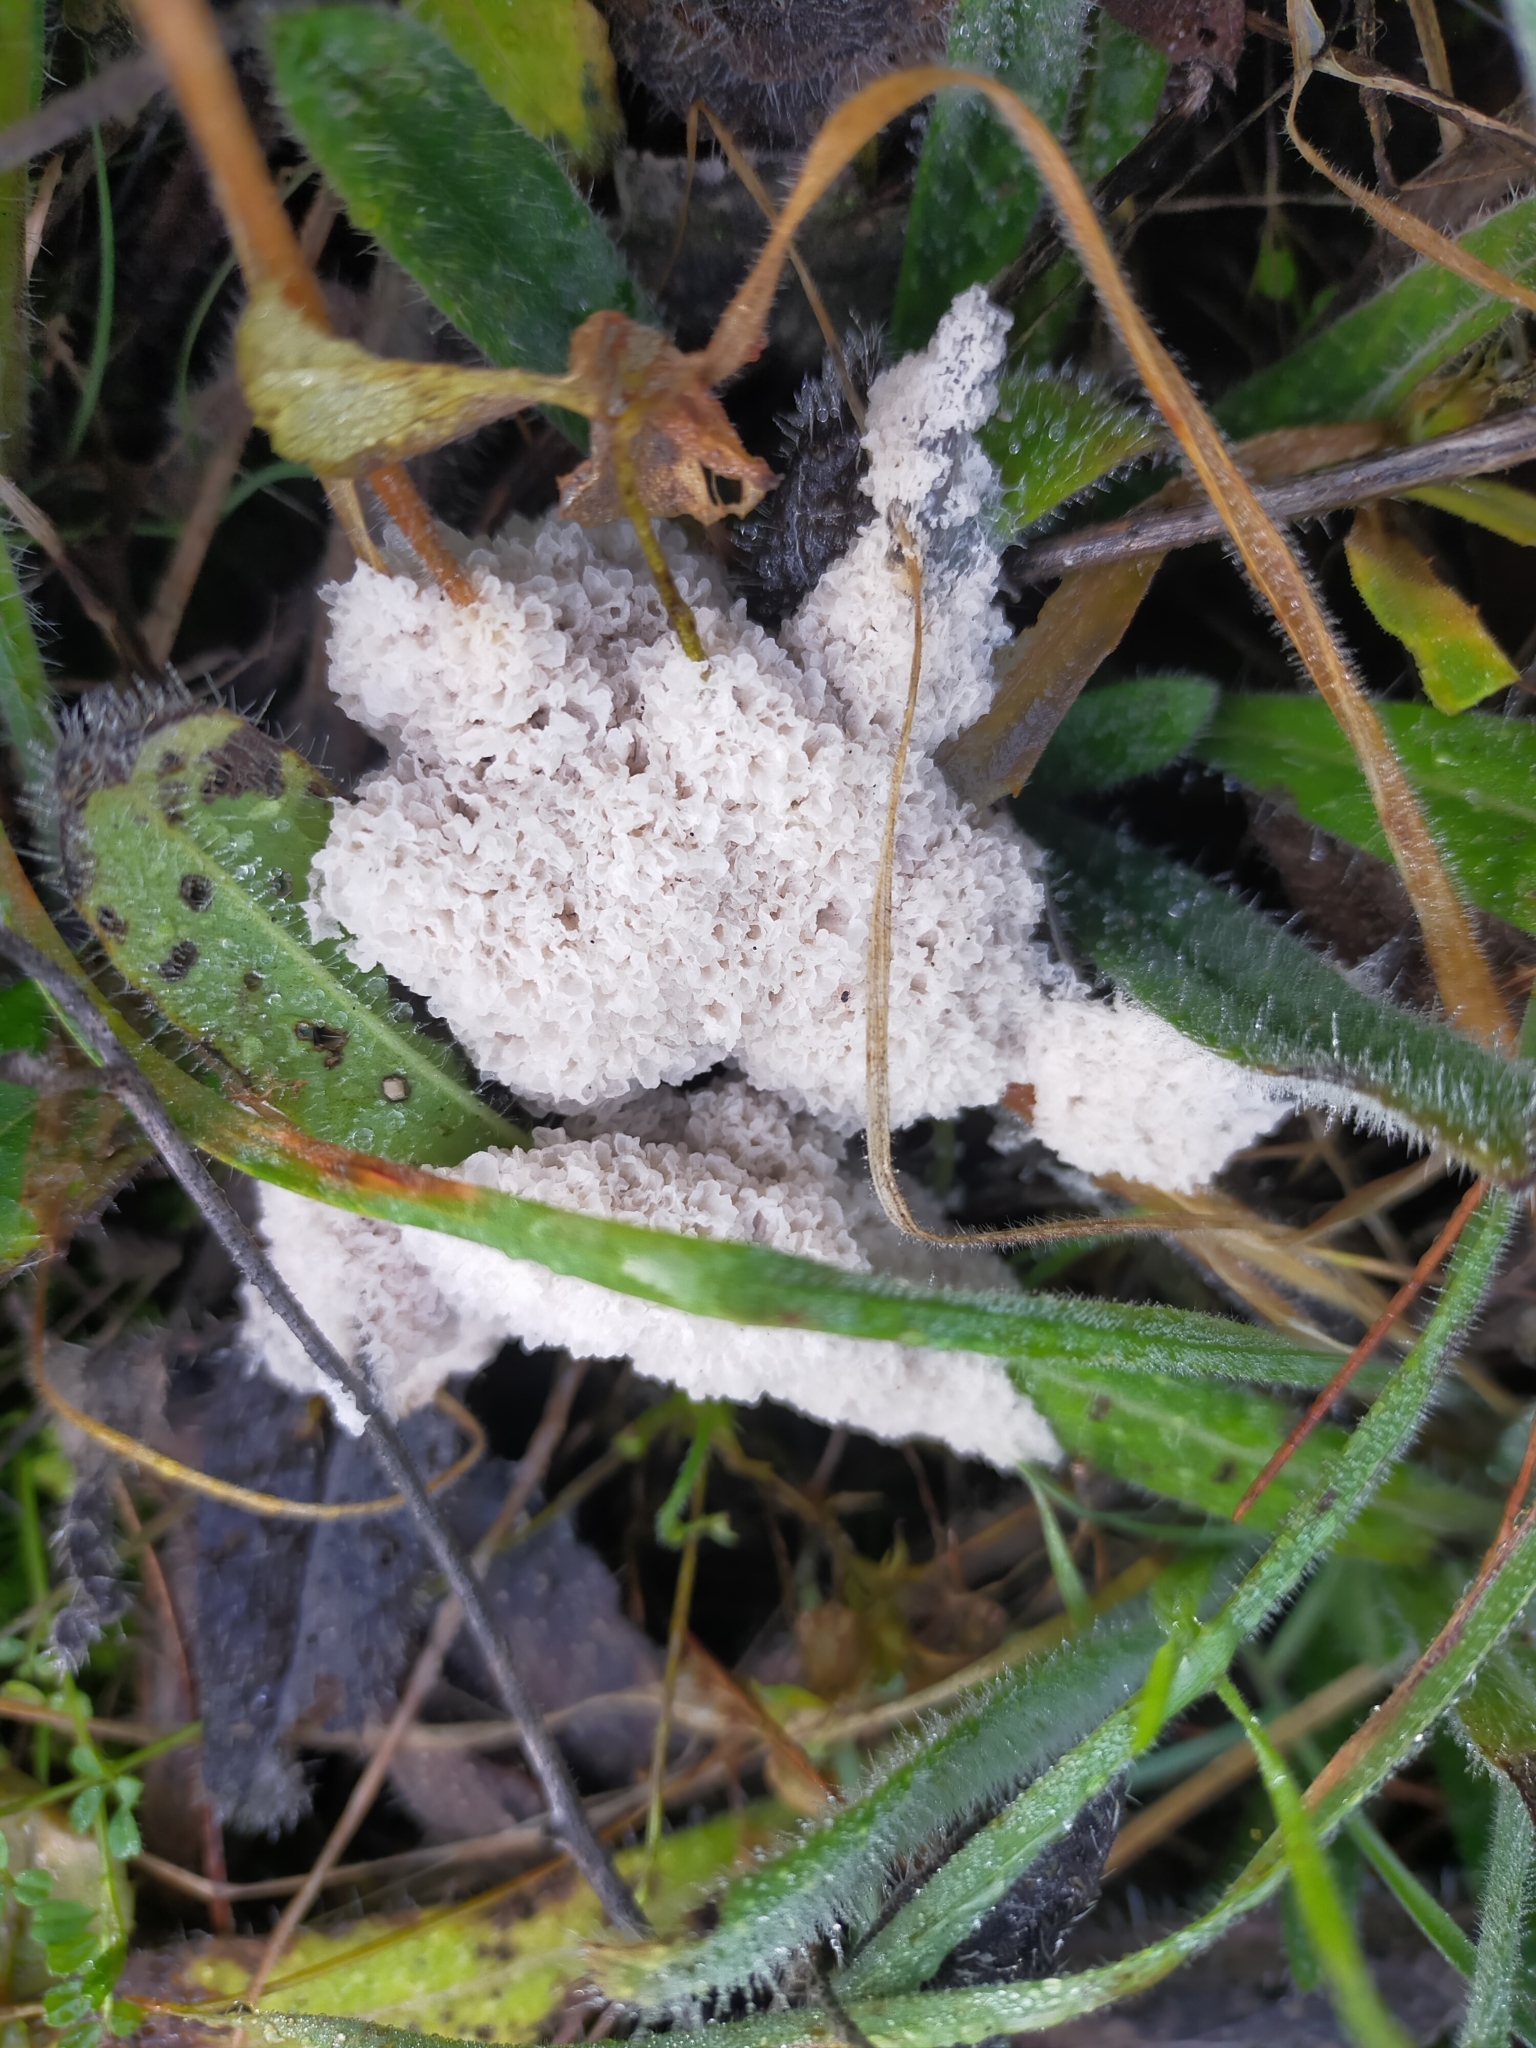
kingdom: Protozoa
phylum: Mycetozoa
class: Myxomycetes
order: Physarales
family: Physaraceae
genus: Didymium
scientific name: Didymium
